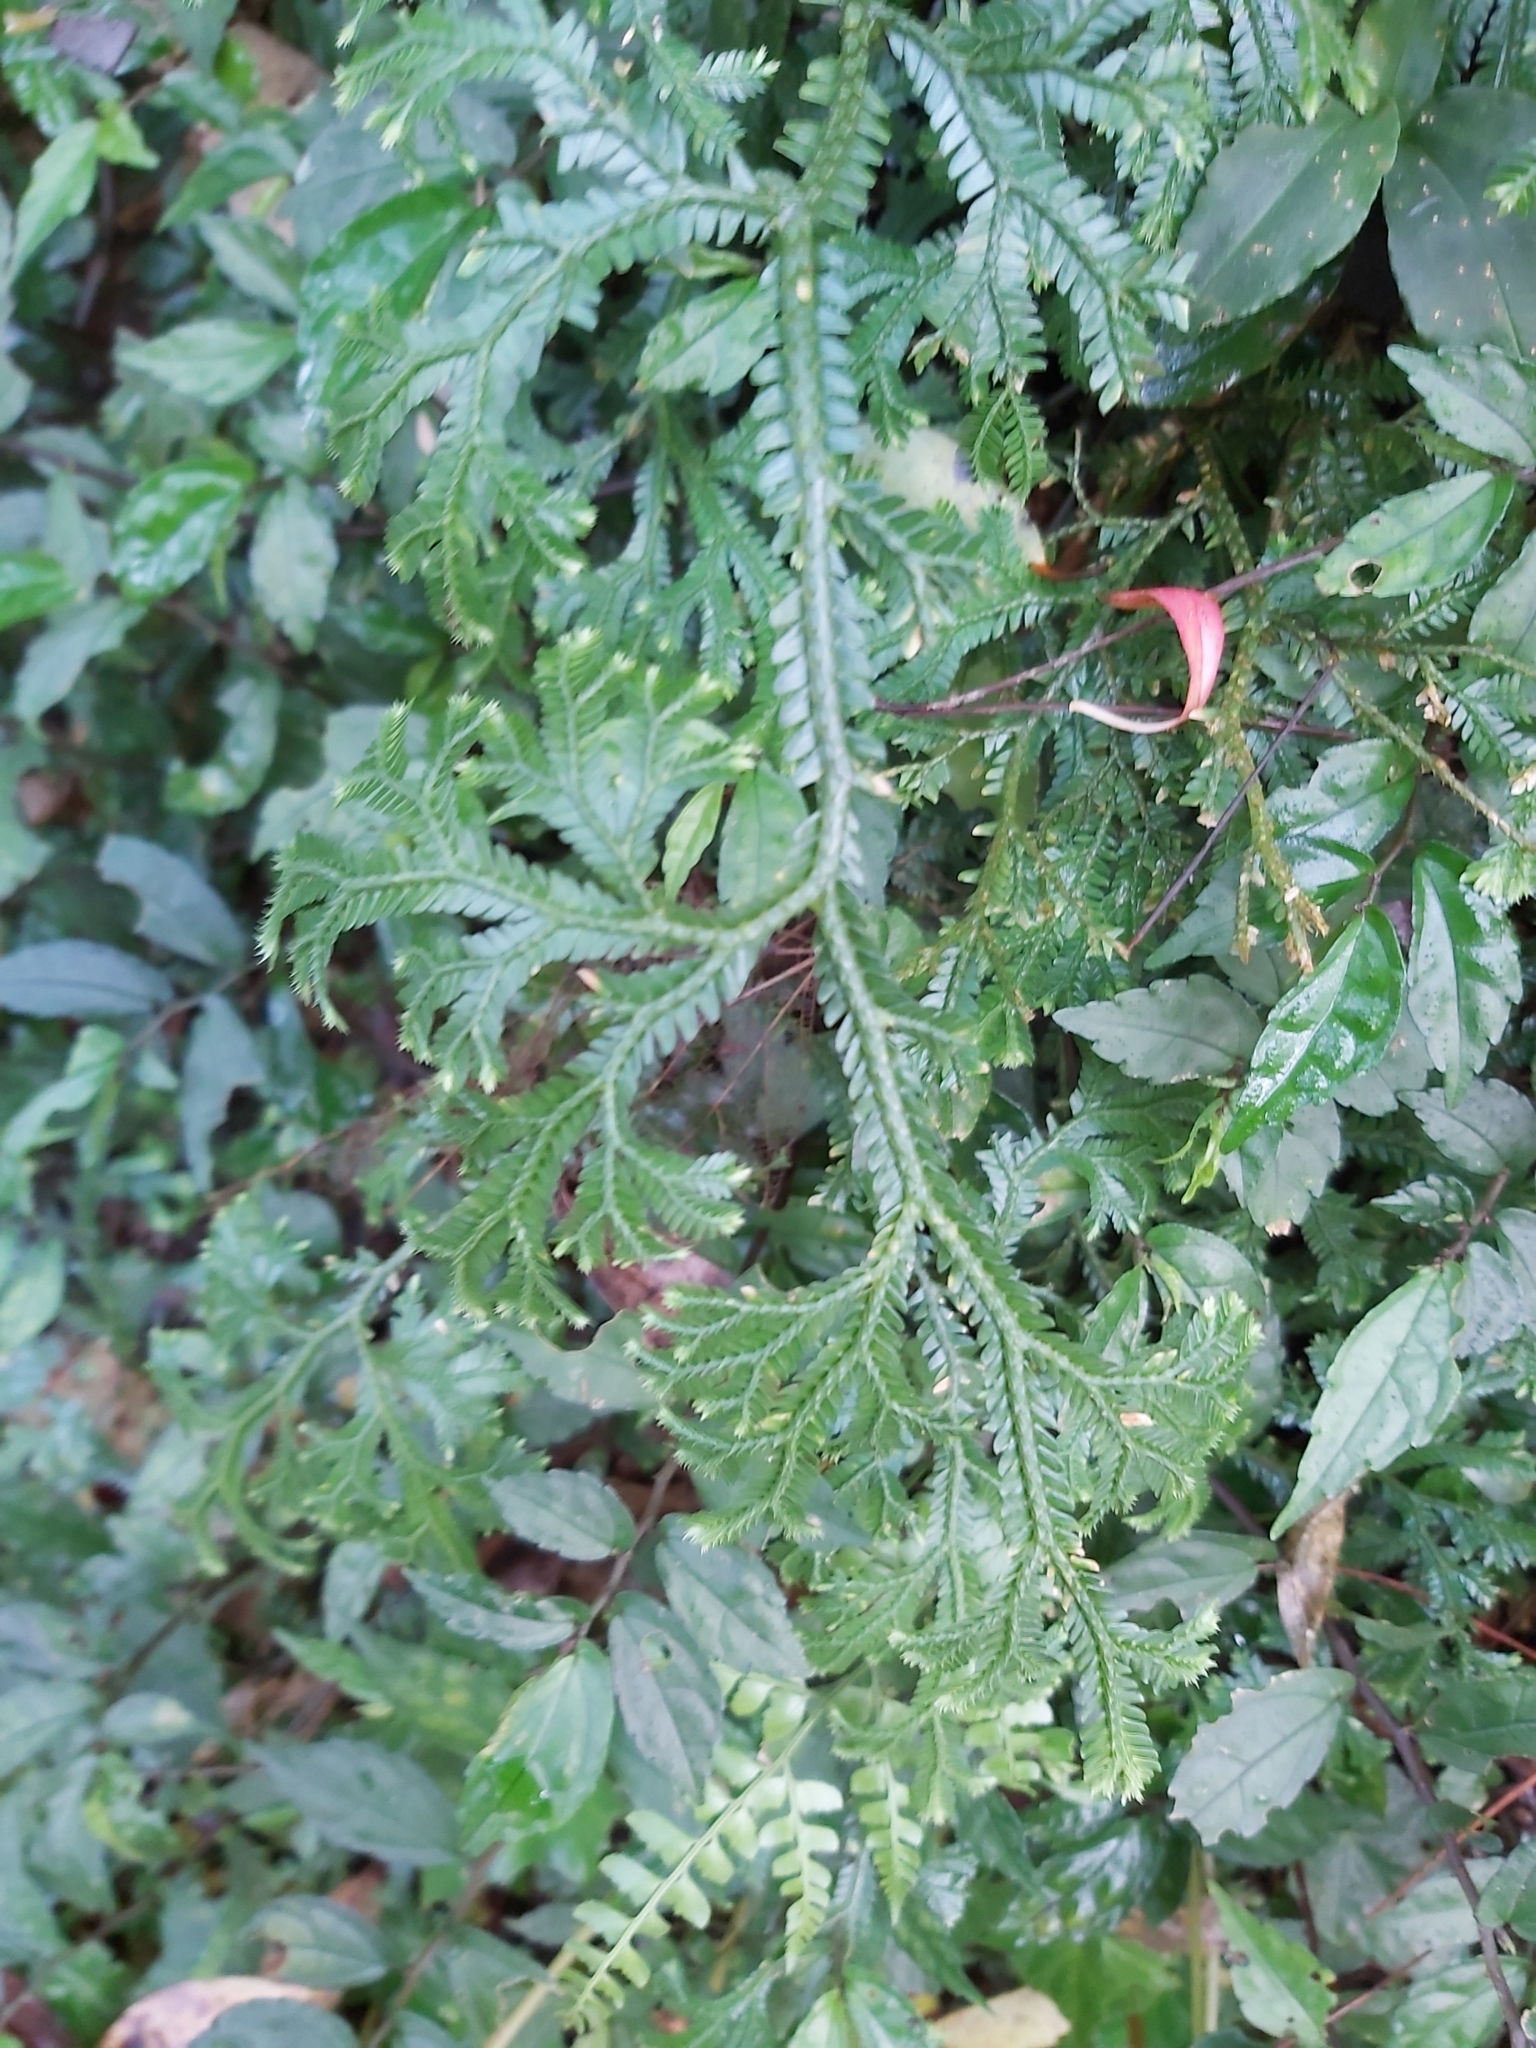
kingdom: Plantae
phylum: Tracheophyta
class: Lycopodiopsida
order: Selaginellales
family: Selaginellaceae
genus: Selaginella
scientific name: Selaginella doederleinii
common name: Greater selaginella
